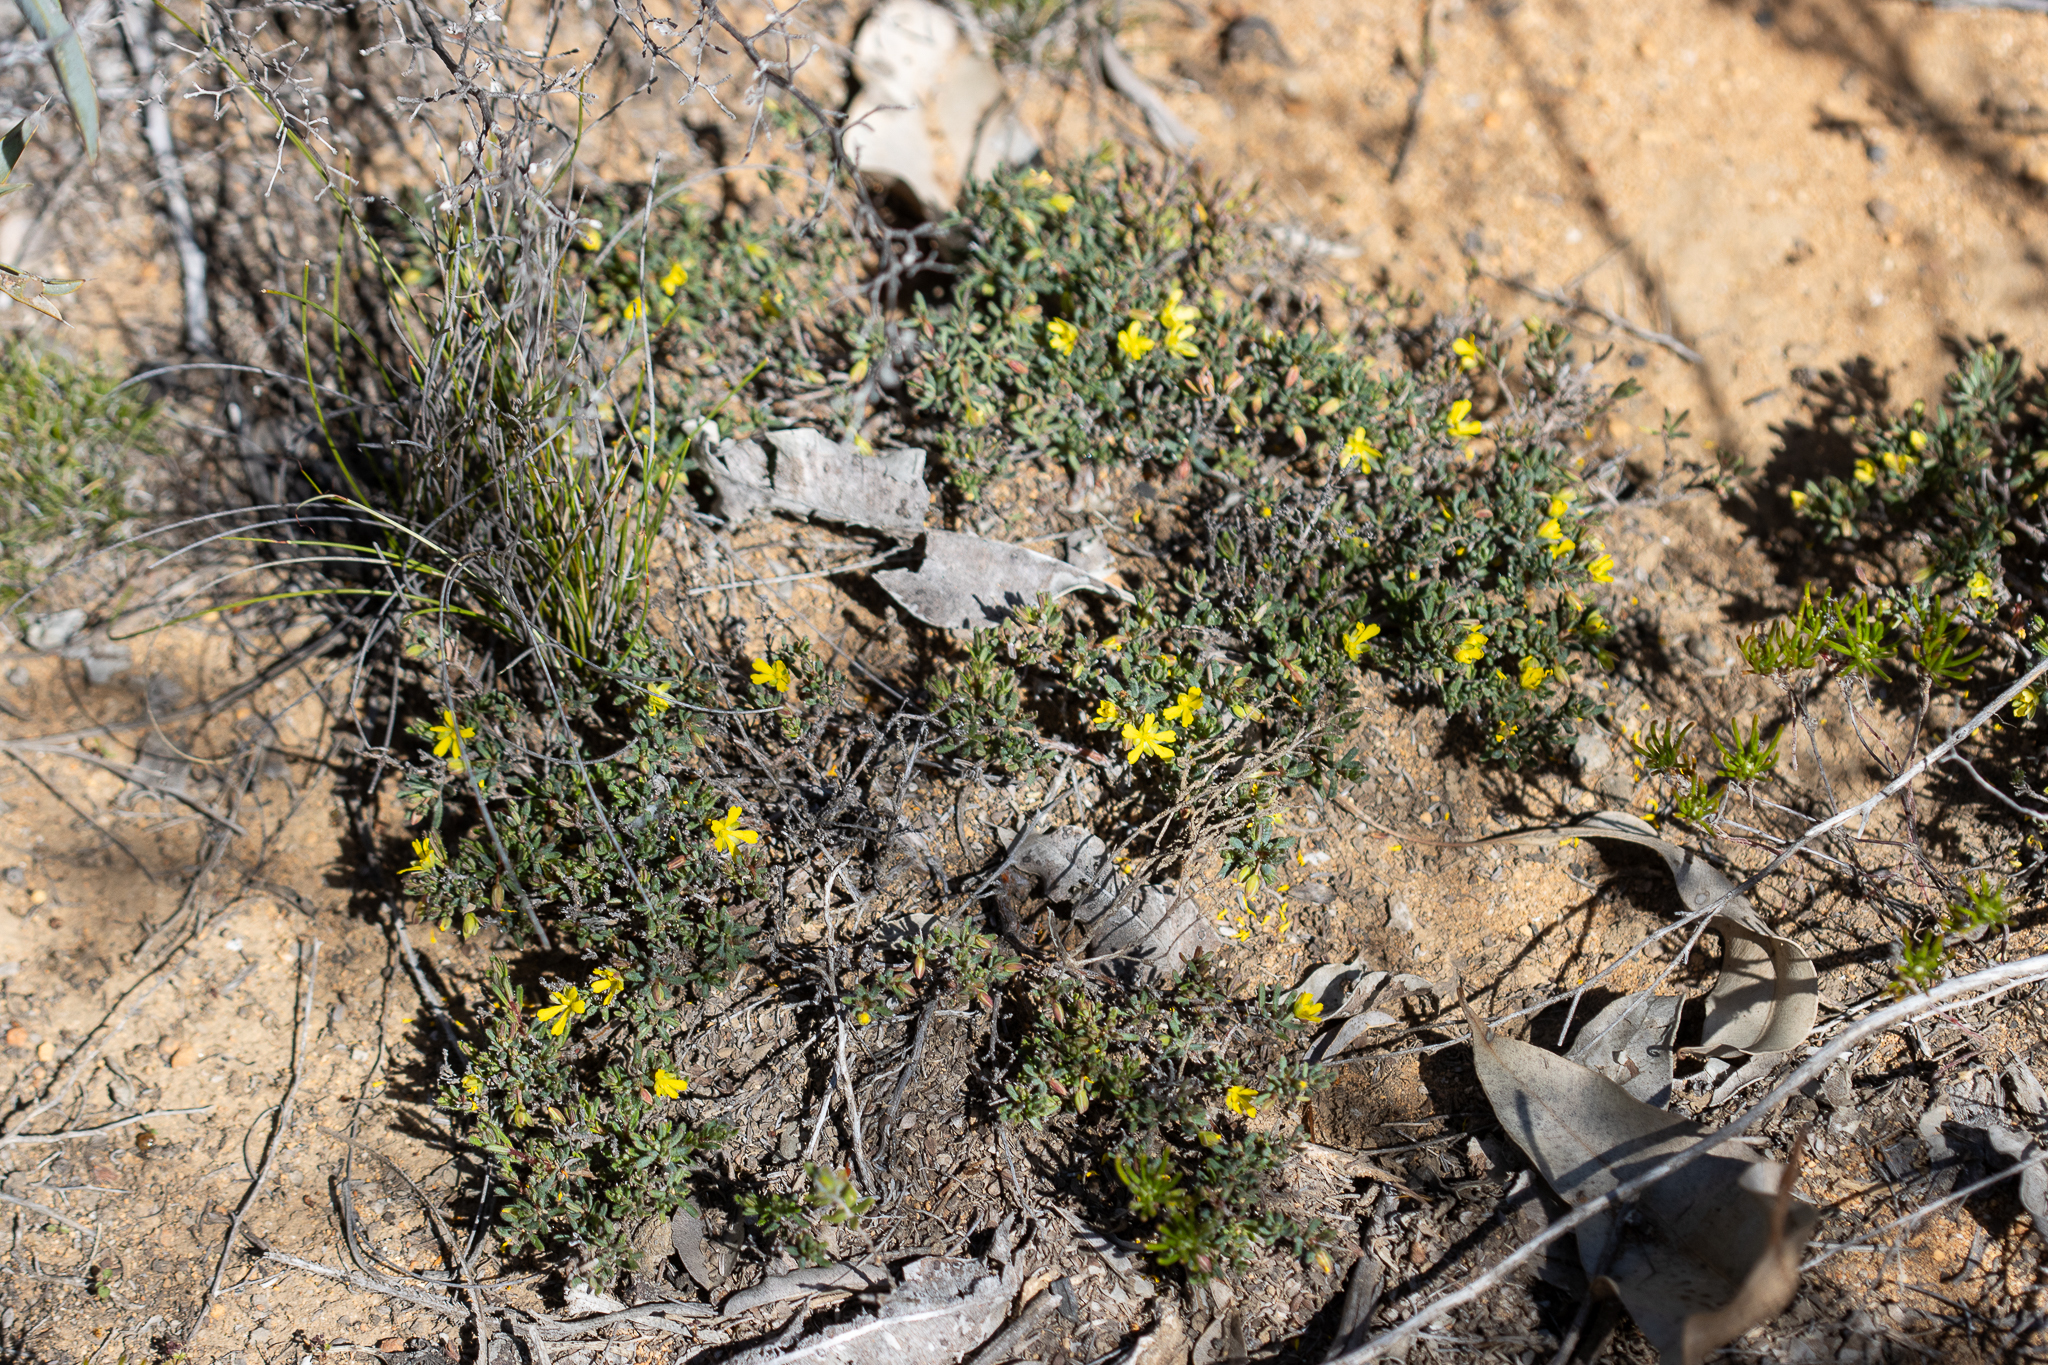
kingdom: Plantae
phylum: Tracheophyta
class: Magnoliopsida
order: Dilleniales
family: Dilleniaceae
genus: Hibbertia
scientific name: Hibbertia
